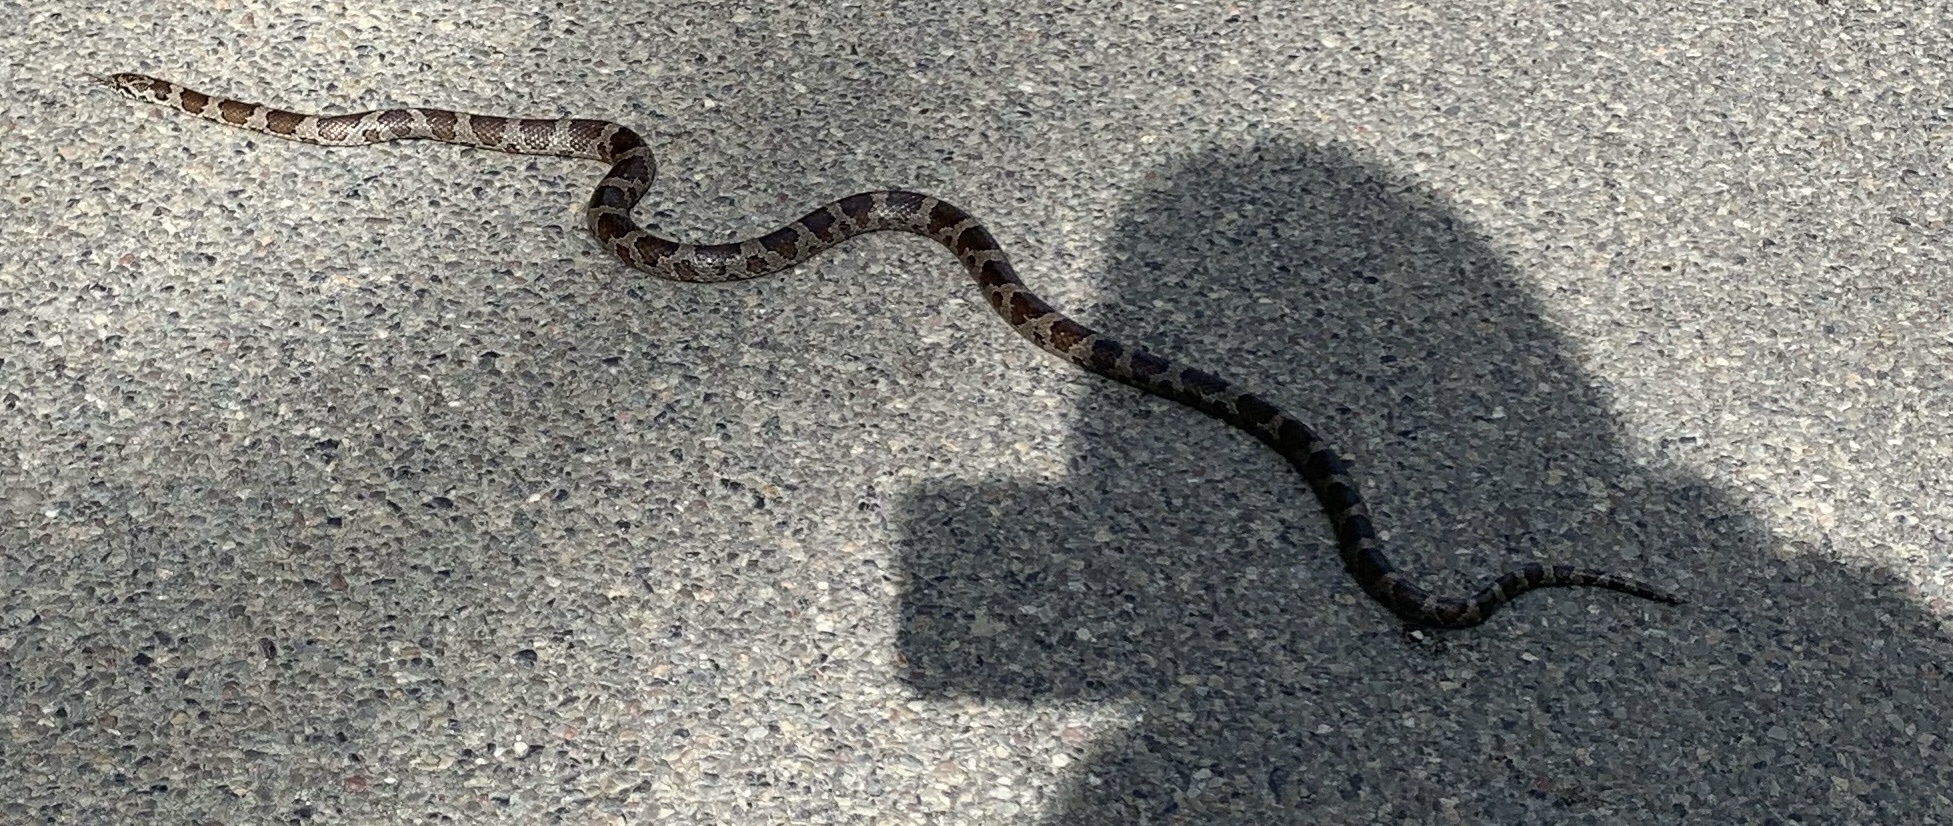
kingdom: Animalia
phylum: Chordata
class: Squamata
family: Colubridae
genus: Lampropeltis
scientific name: Lampropeltis triangulum
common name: Eastern milksnake
